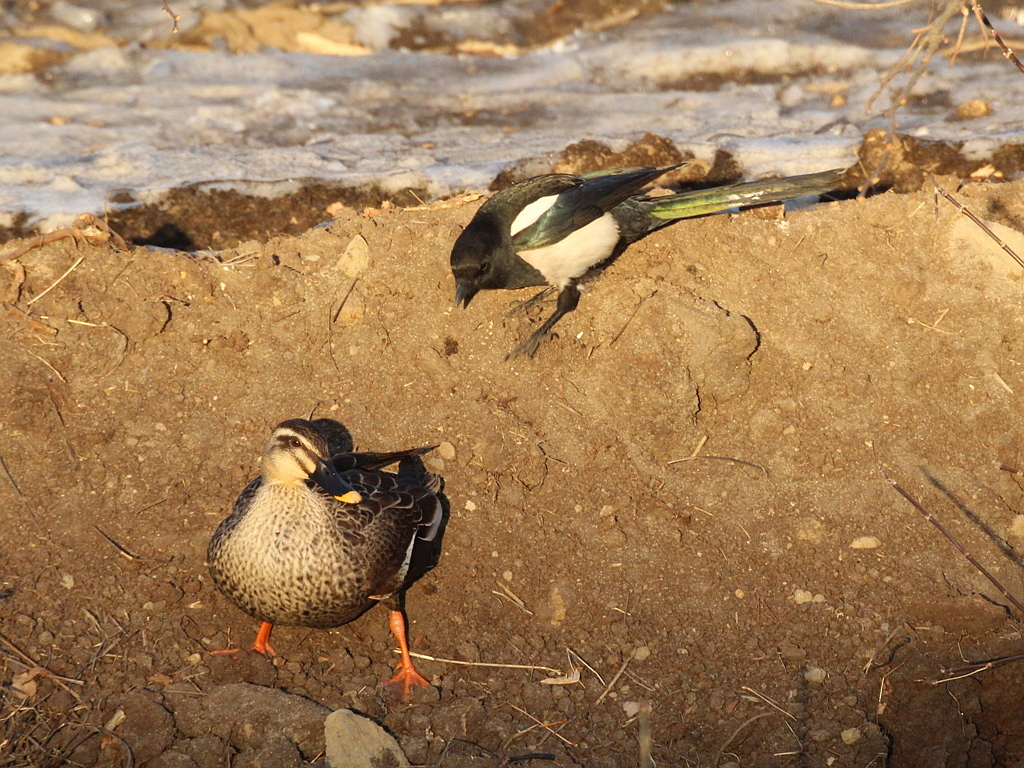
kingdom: Animalia
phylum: Chordata
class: Aves
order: Anseriformes
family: Anatidae
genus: Anas
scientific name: Anas zonorhyncha
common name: Eastern spot-billed duck
